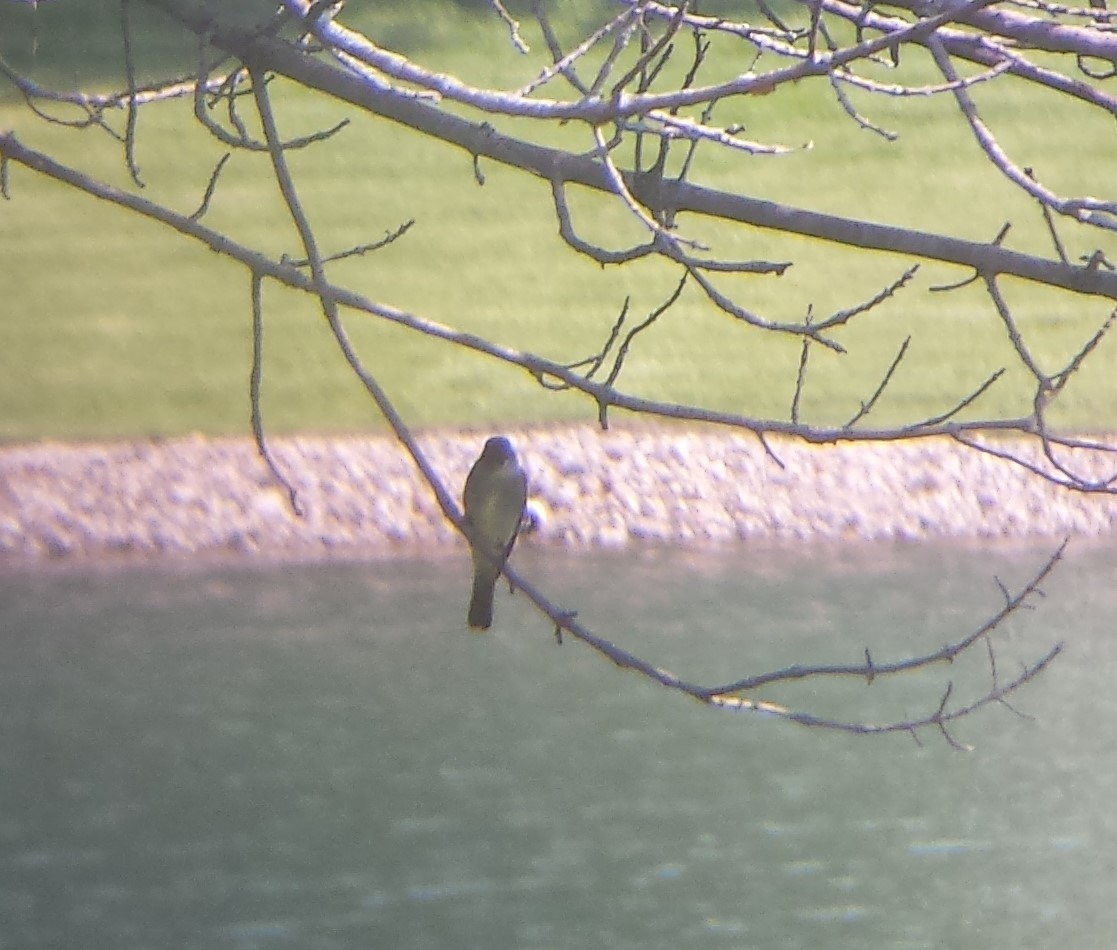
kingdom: Animalia
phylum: Chordata
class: Aves
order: Passeriformes
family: Tyrannidae
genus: Contopus
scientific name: Contopus virens
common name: Eastern wood-pewee
